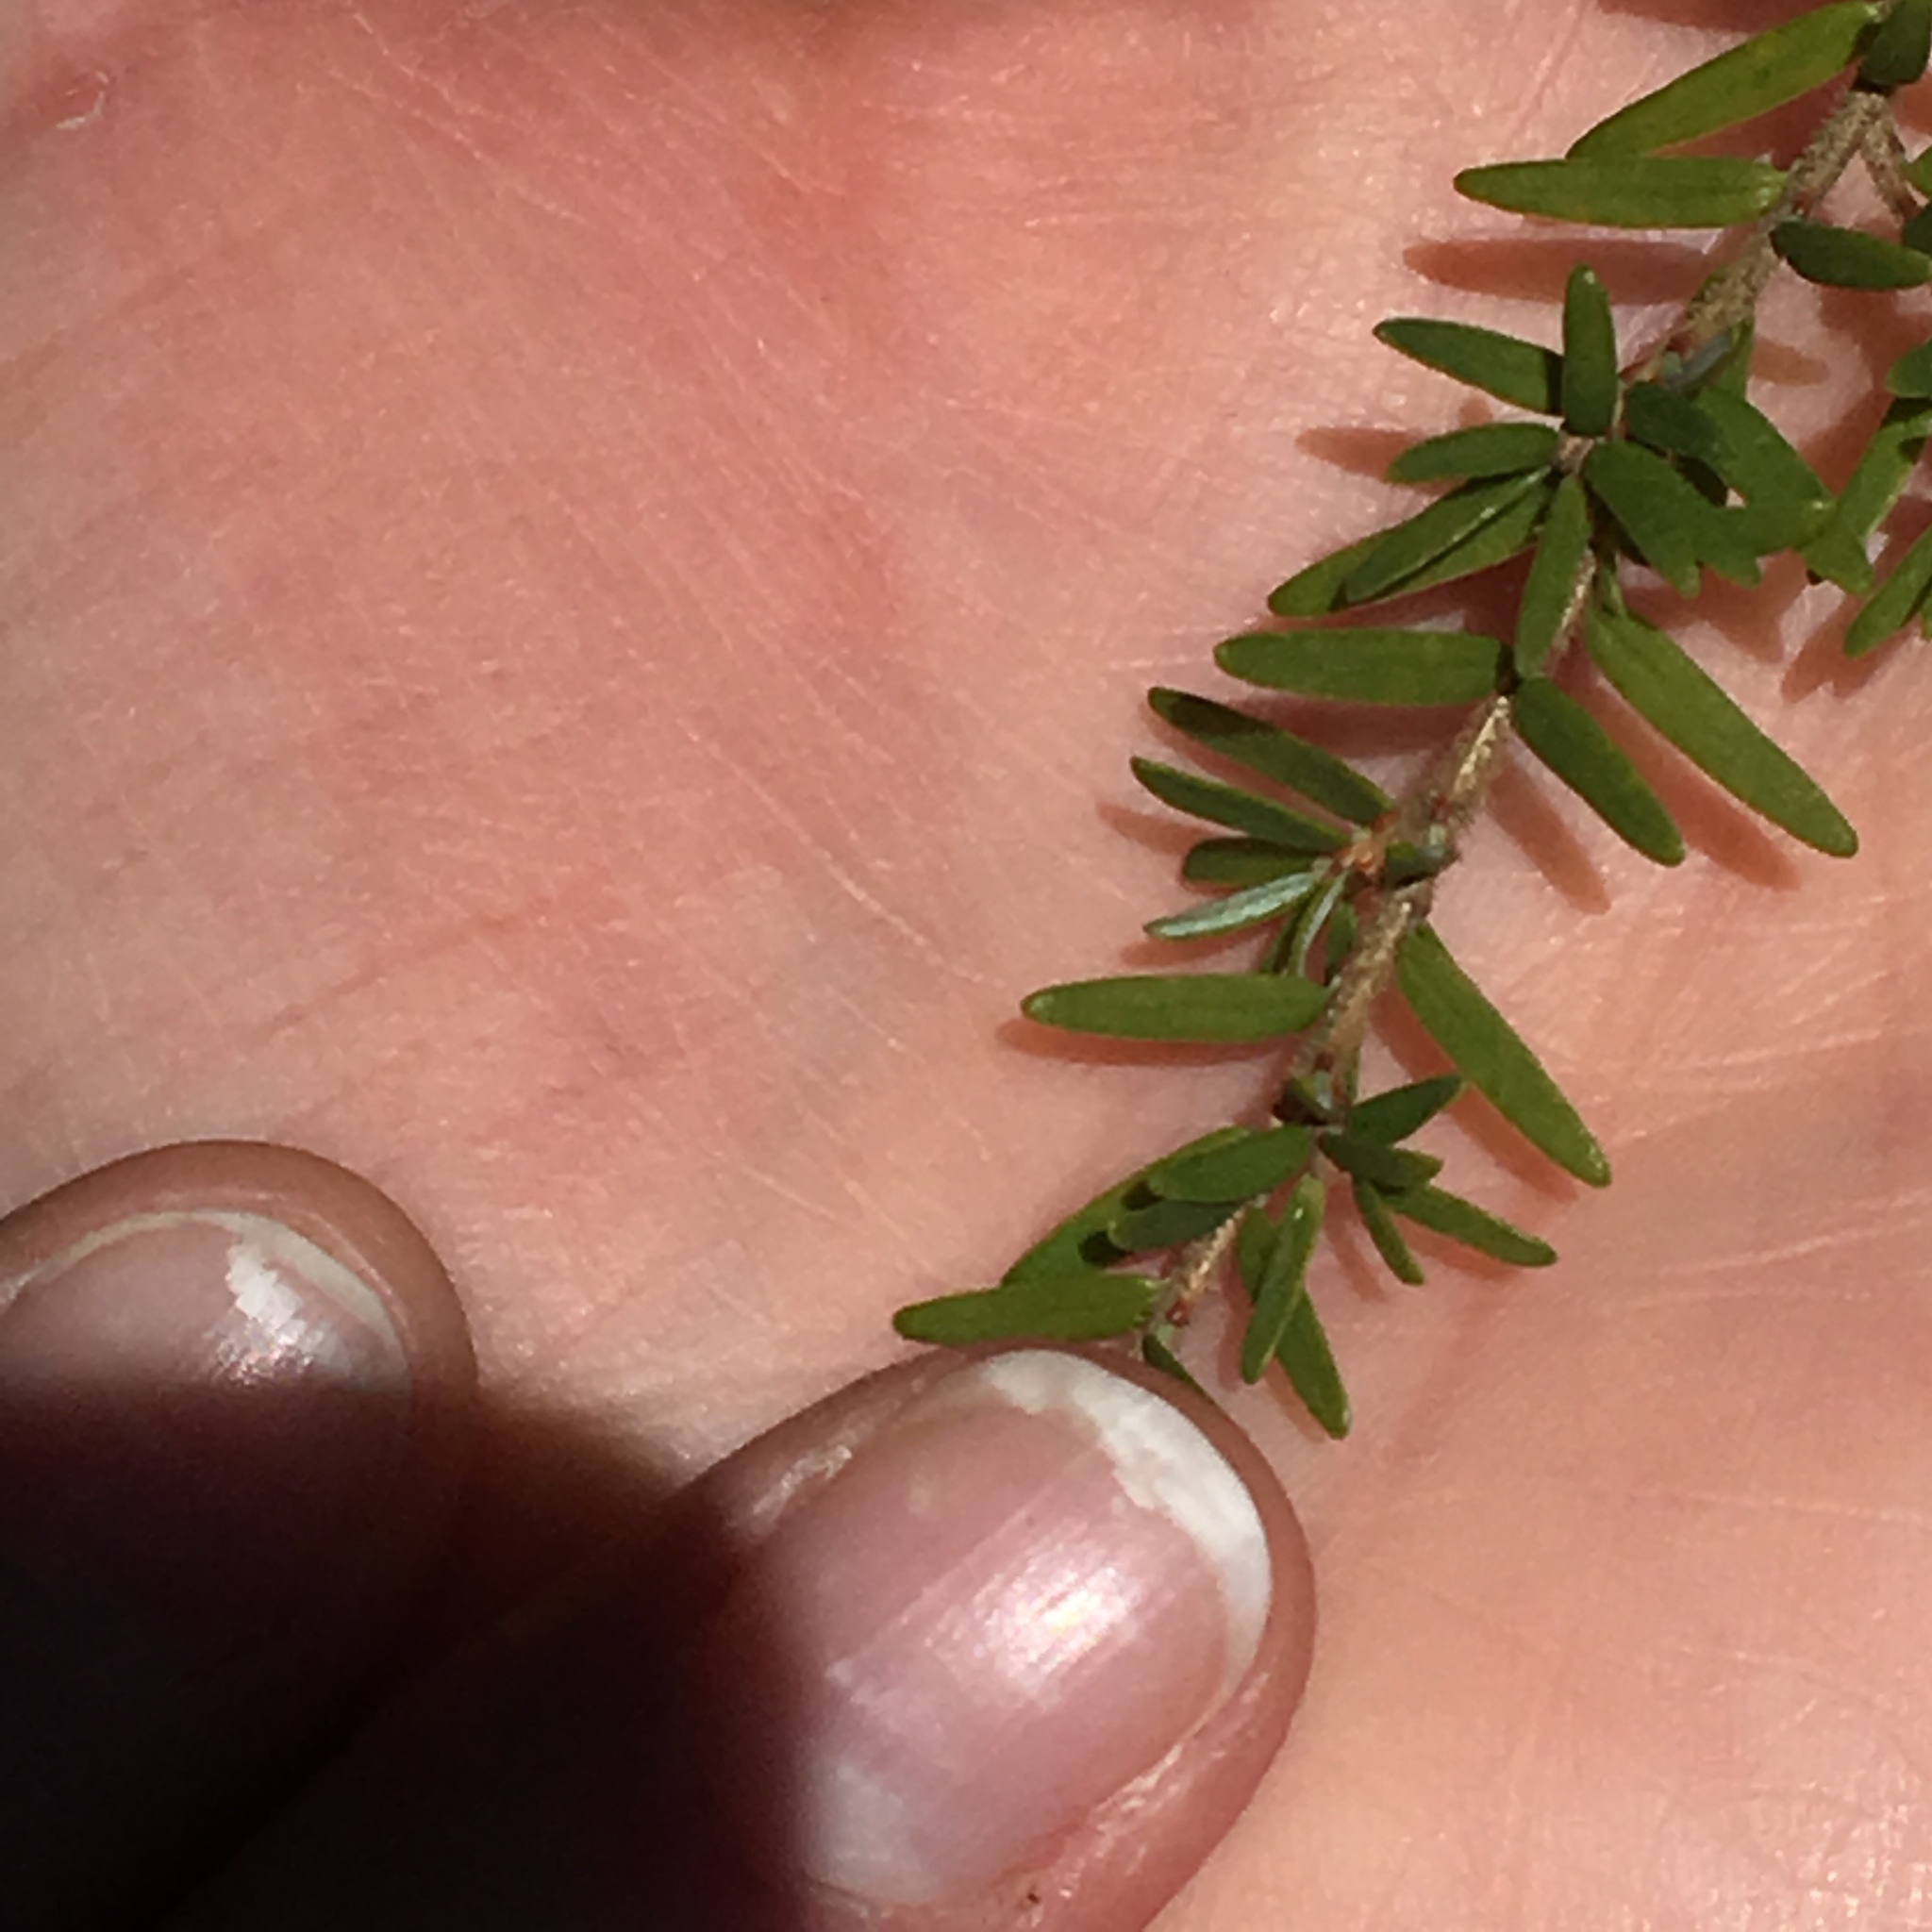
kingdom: Plantae
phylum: Tracheophyta
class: Pinopsida
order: Pinales
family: Pinaceae
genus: Tsuga
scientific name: Tsuga heterophylla
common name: Western hemlock
